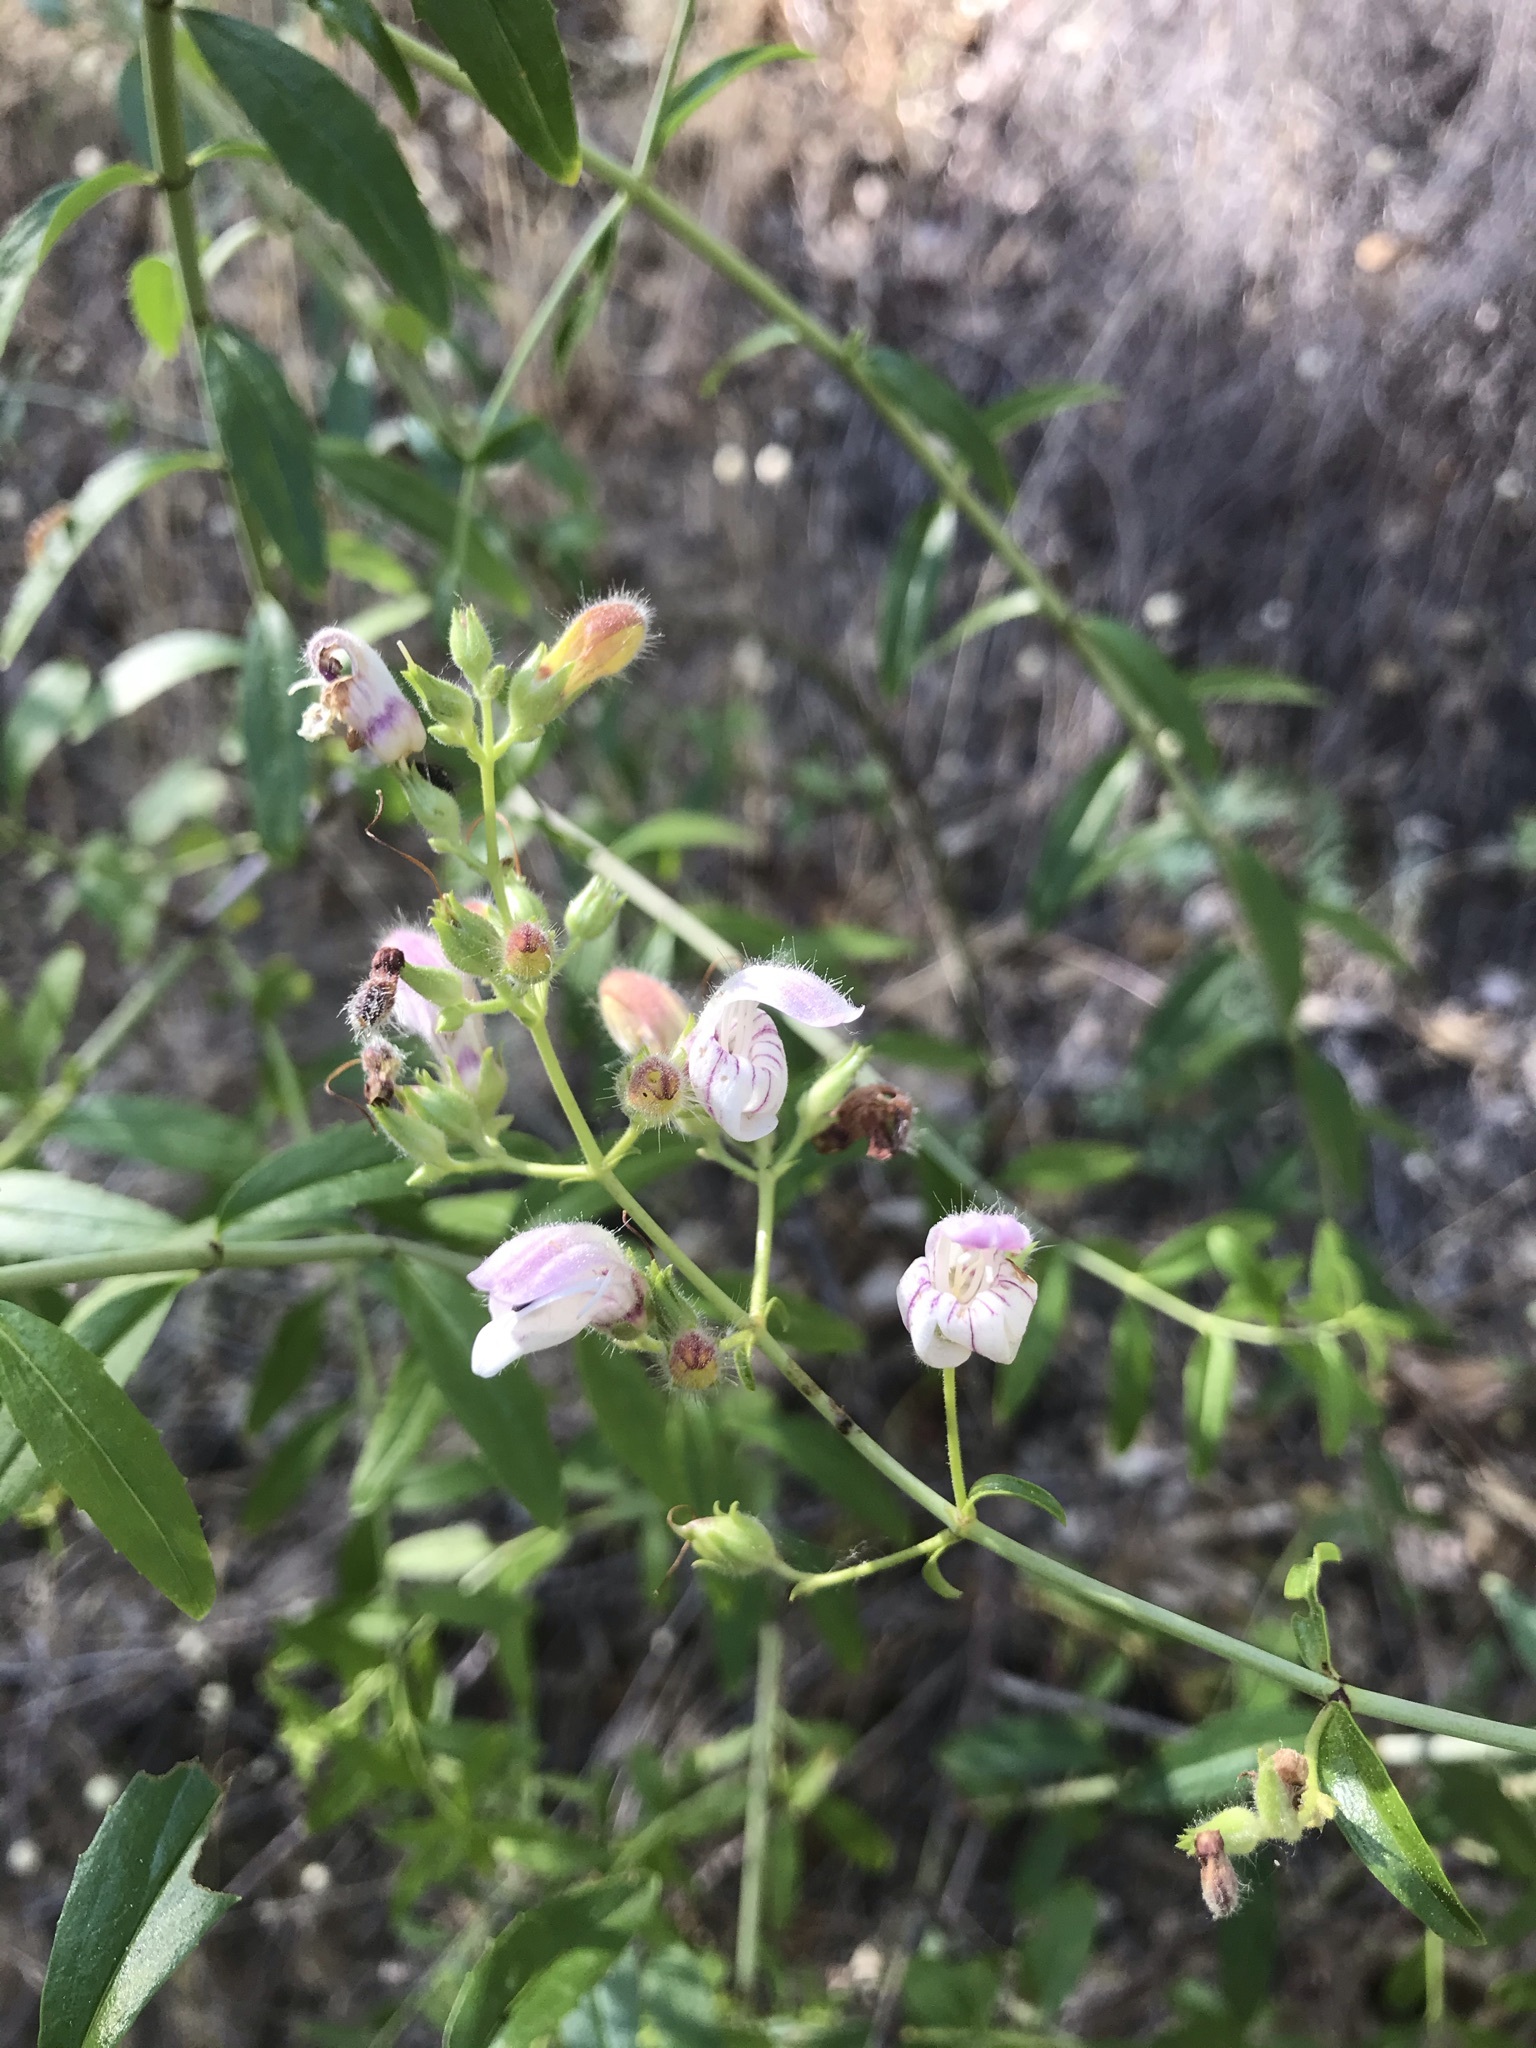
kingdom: Plantae
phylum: Tracheophyta
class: Magnoliopsida
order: Lamiales
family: Plantaginaceae
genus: Keckiella
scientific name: Keckiella breviflora
